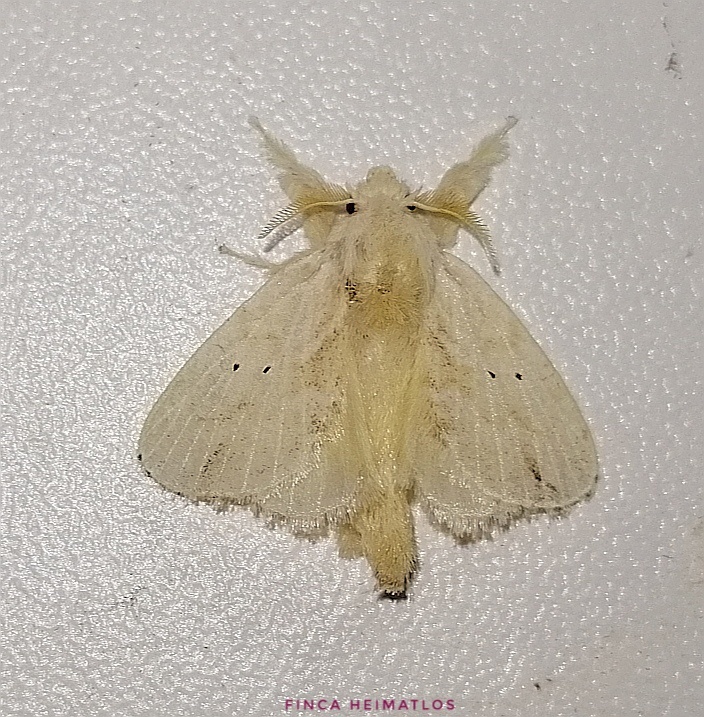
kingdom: Animalia
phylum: Arthropoda
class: Insecta
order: Lepidoptera
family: Lasiocampidae
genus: Nesara
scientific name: Nesara mita
